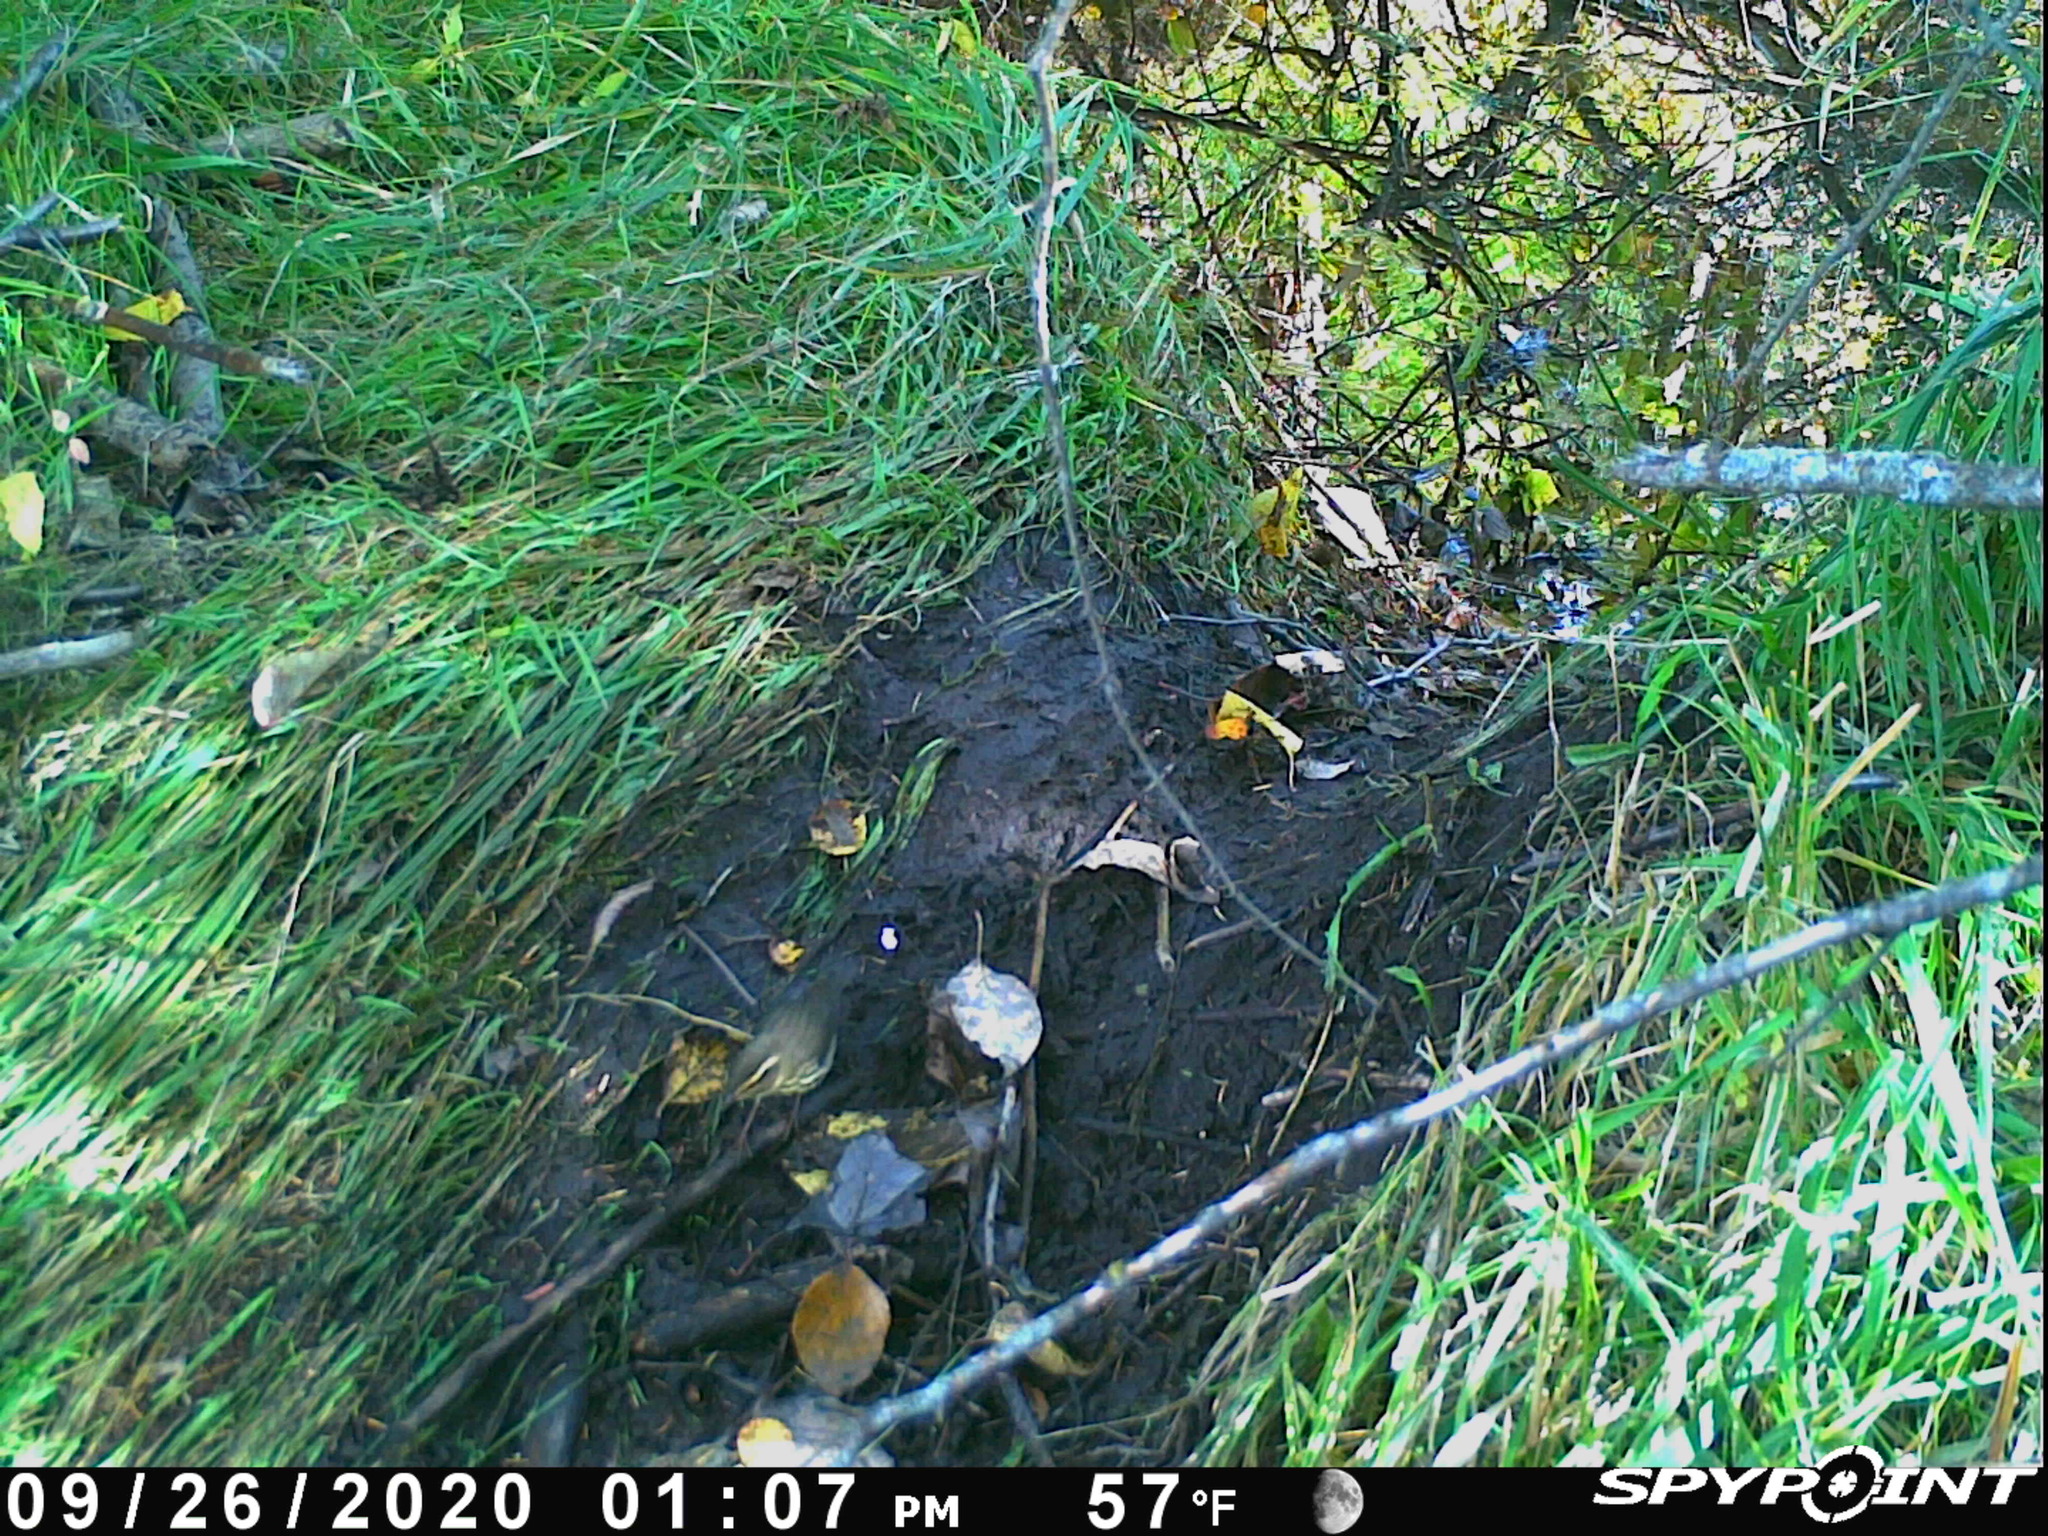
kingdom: Animalia
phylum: Chordata
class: Aves
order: Passeriformes
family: Parulidae
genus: Parkesia
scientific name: Parkesia noveboracensis
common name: Northern waterthrush
